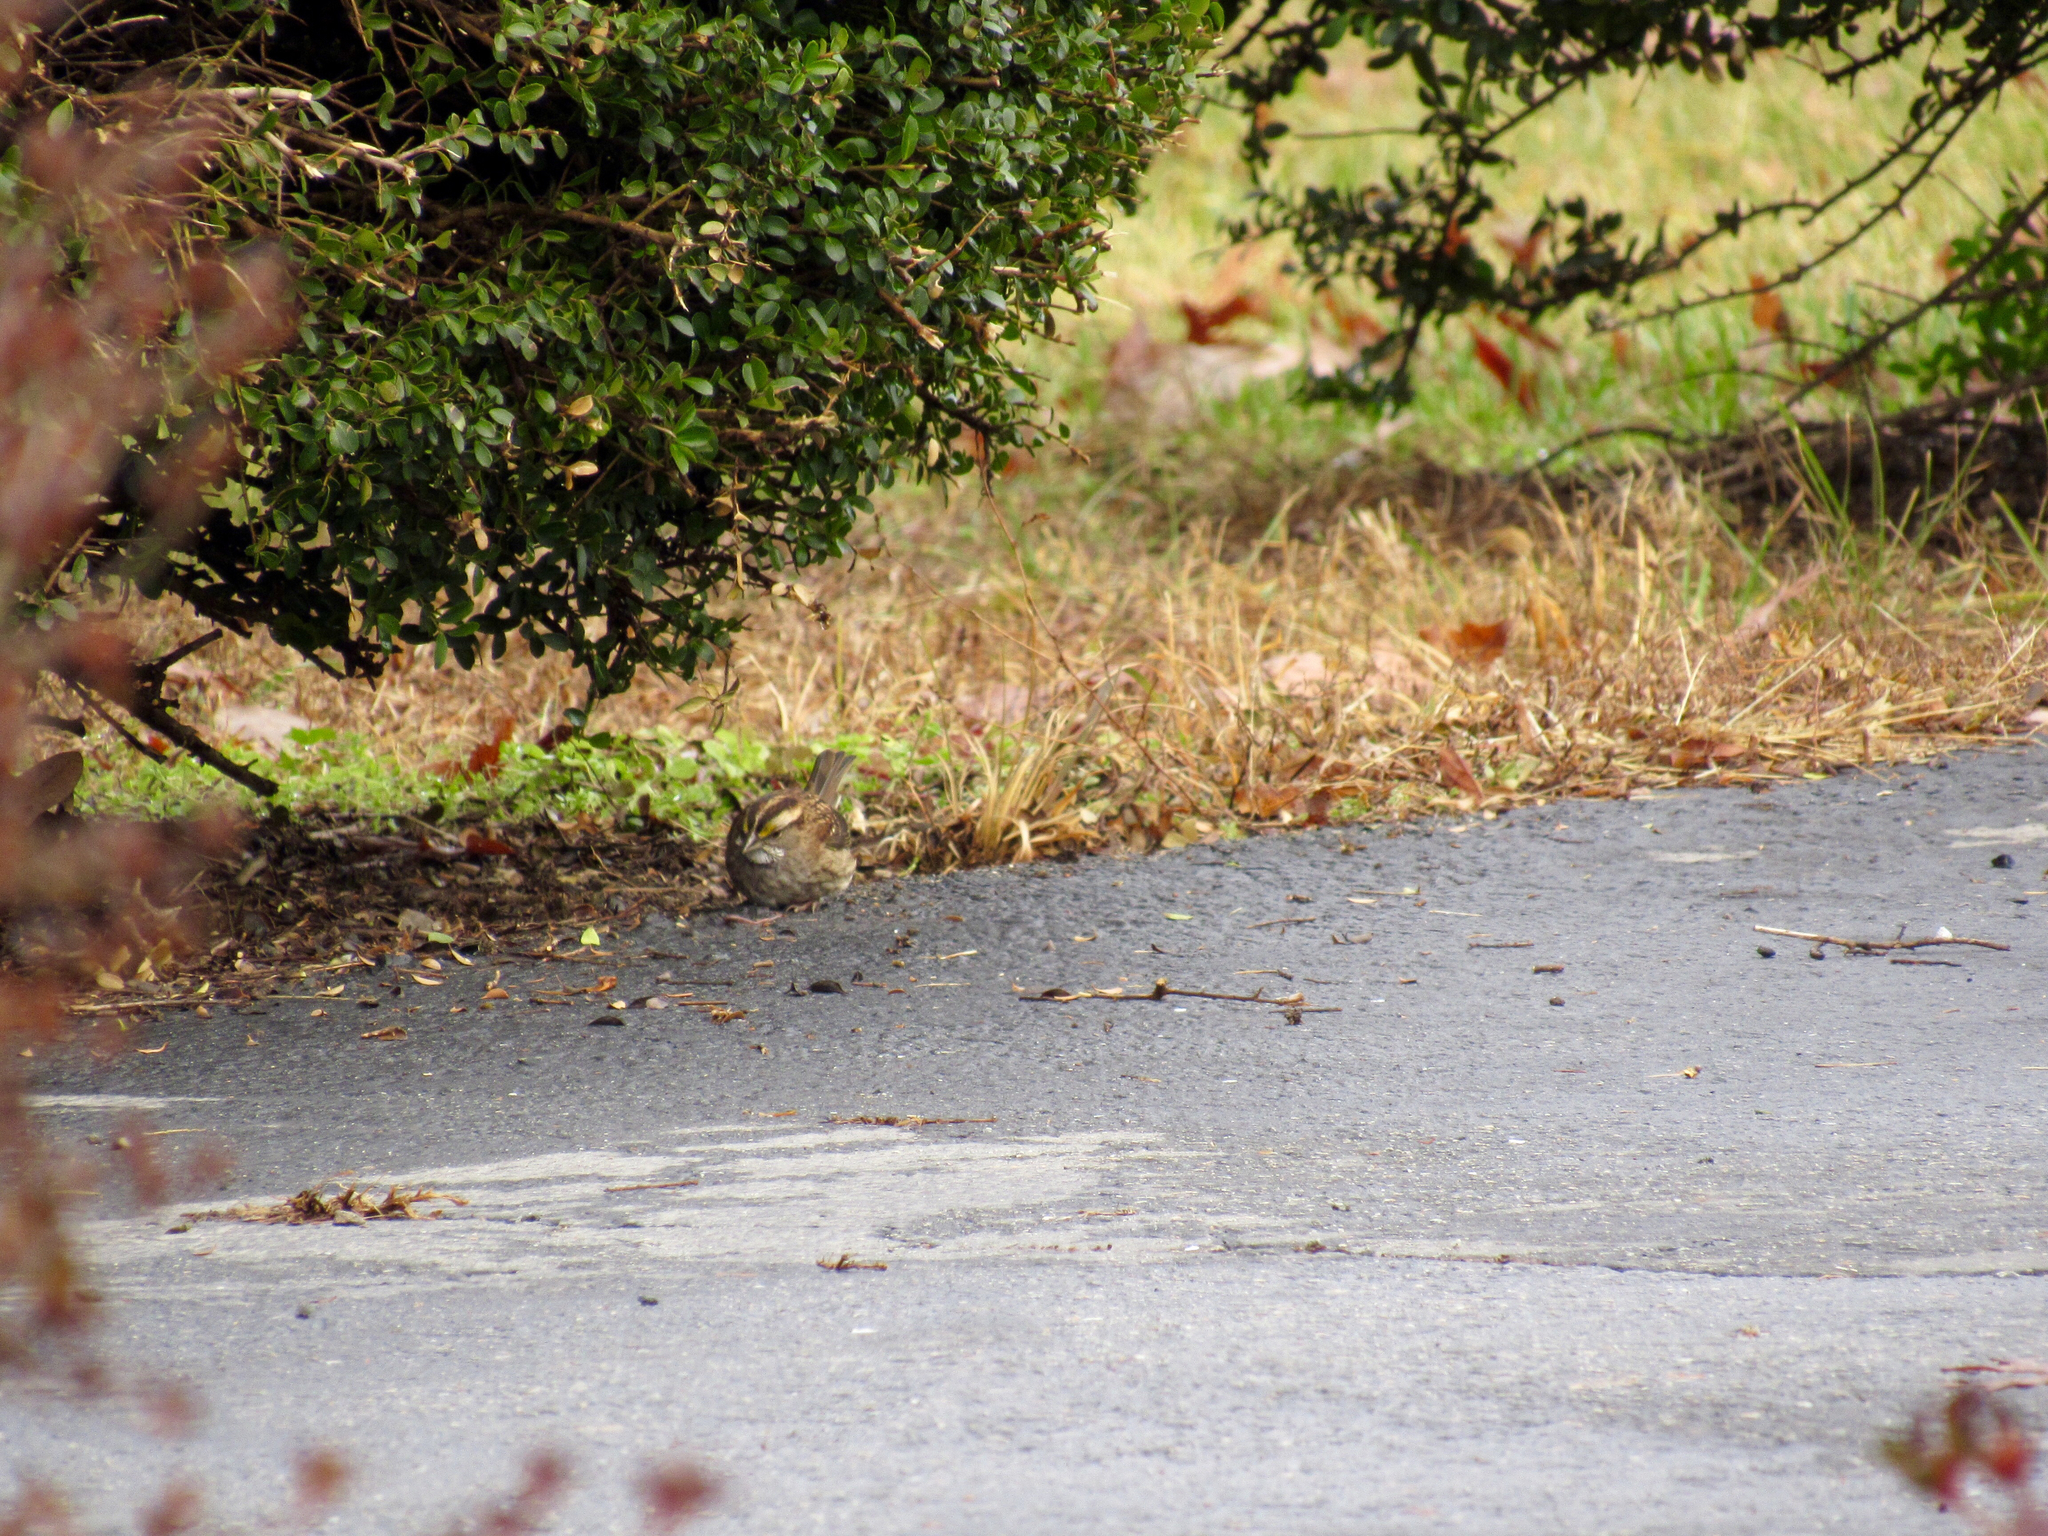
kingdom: Animalia
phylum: Chordata
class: Aves
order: Passeriformes
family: Passerellidae
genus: Zonotrichia
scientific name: Zonotrichia albicollis
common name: White-throated sparrow
